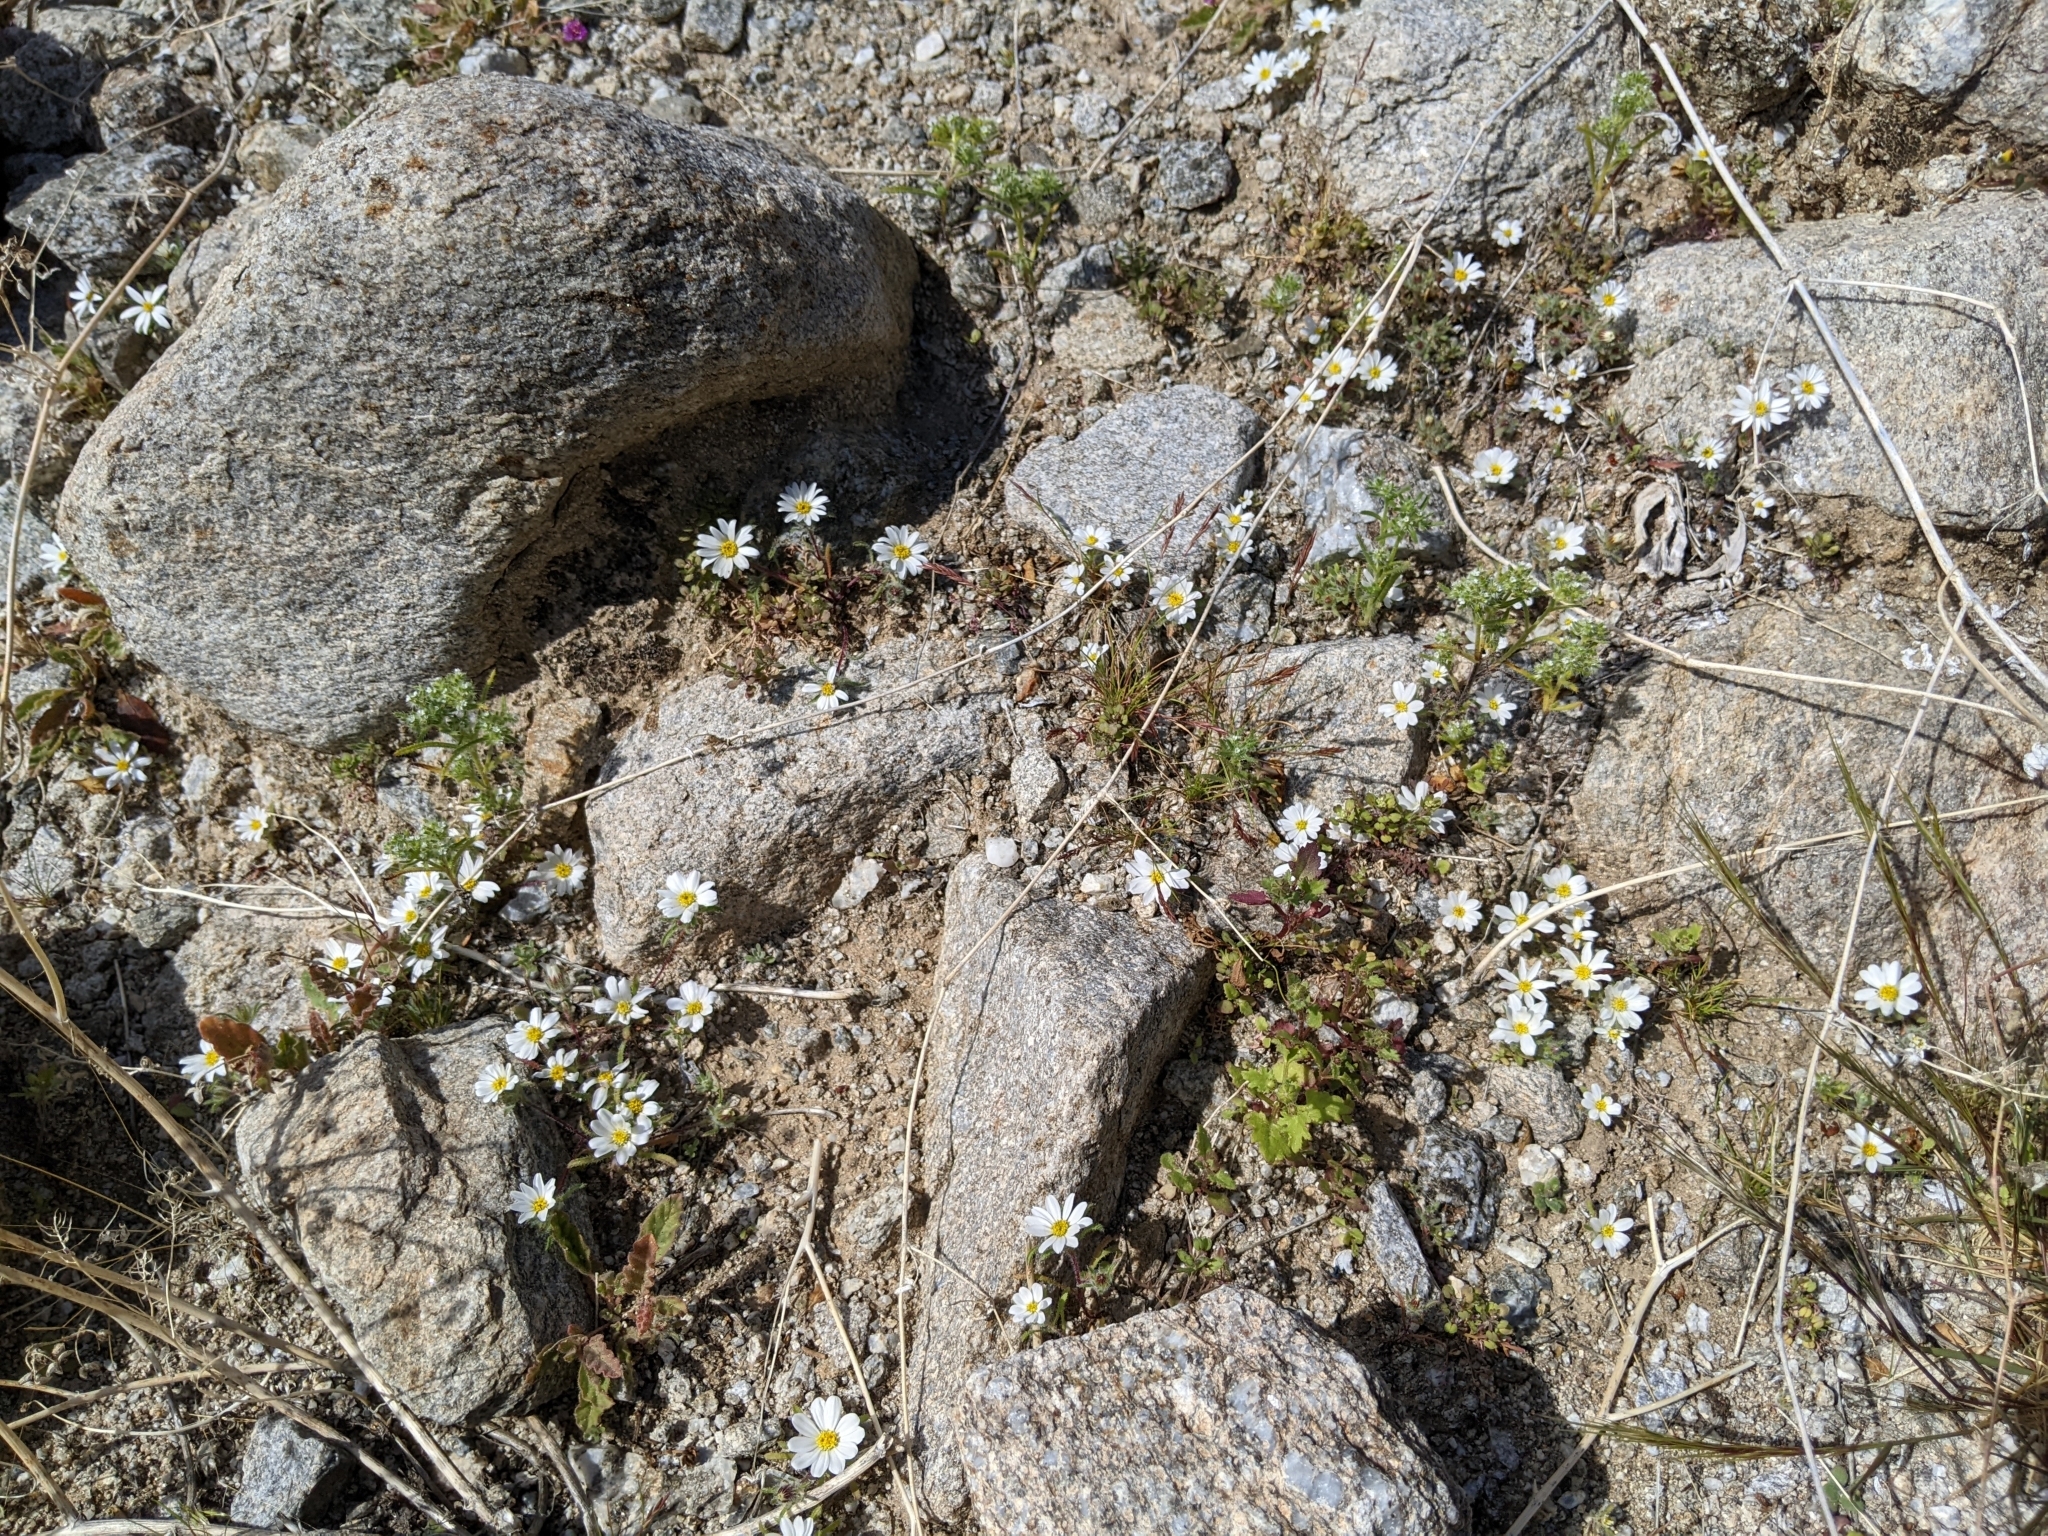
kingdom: Plantae
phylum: Tracheophyta
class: Magnoliopsida
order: Asterales
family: Asteraceae
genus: Monoptilon
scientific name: Monoptilon bellioides
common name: Bristly desertstar
